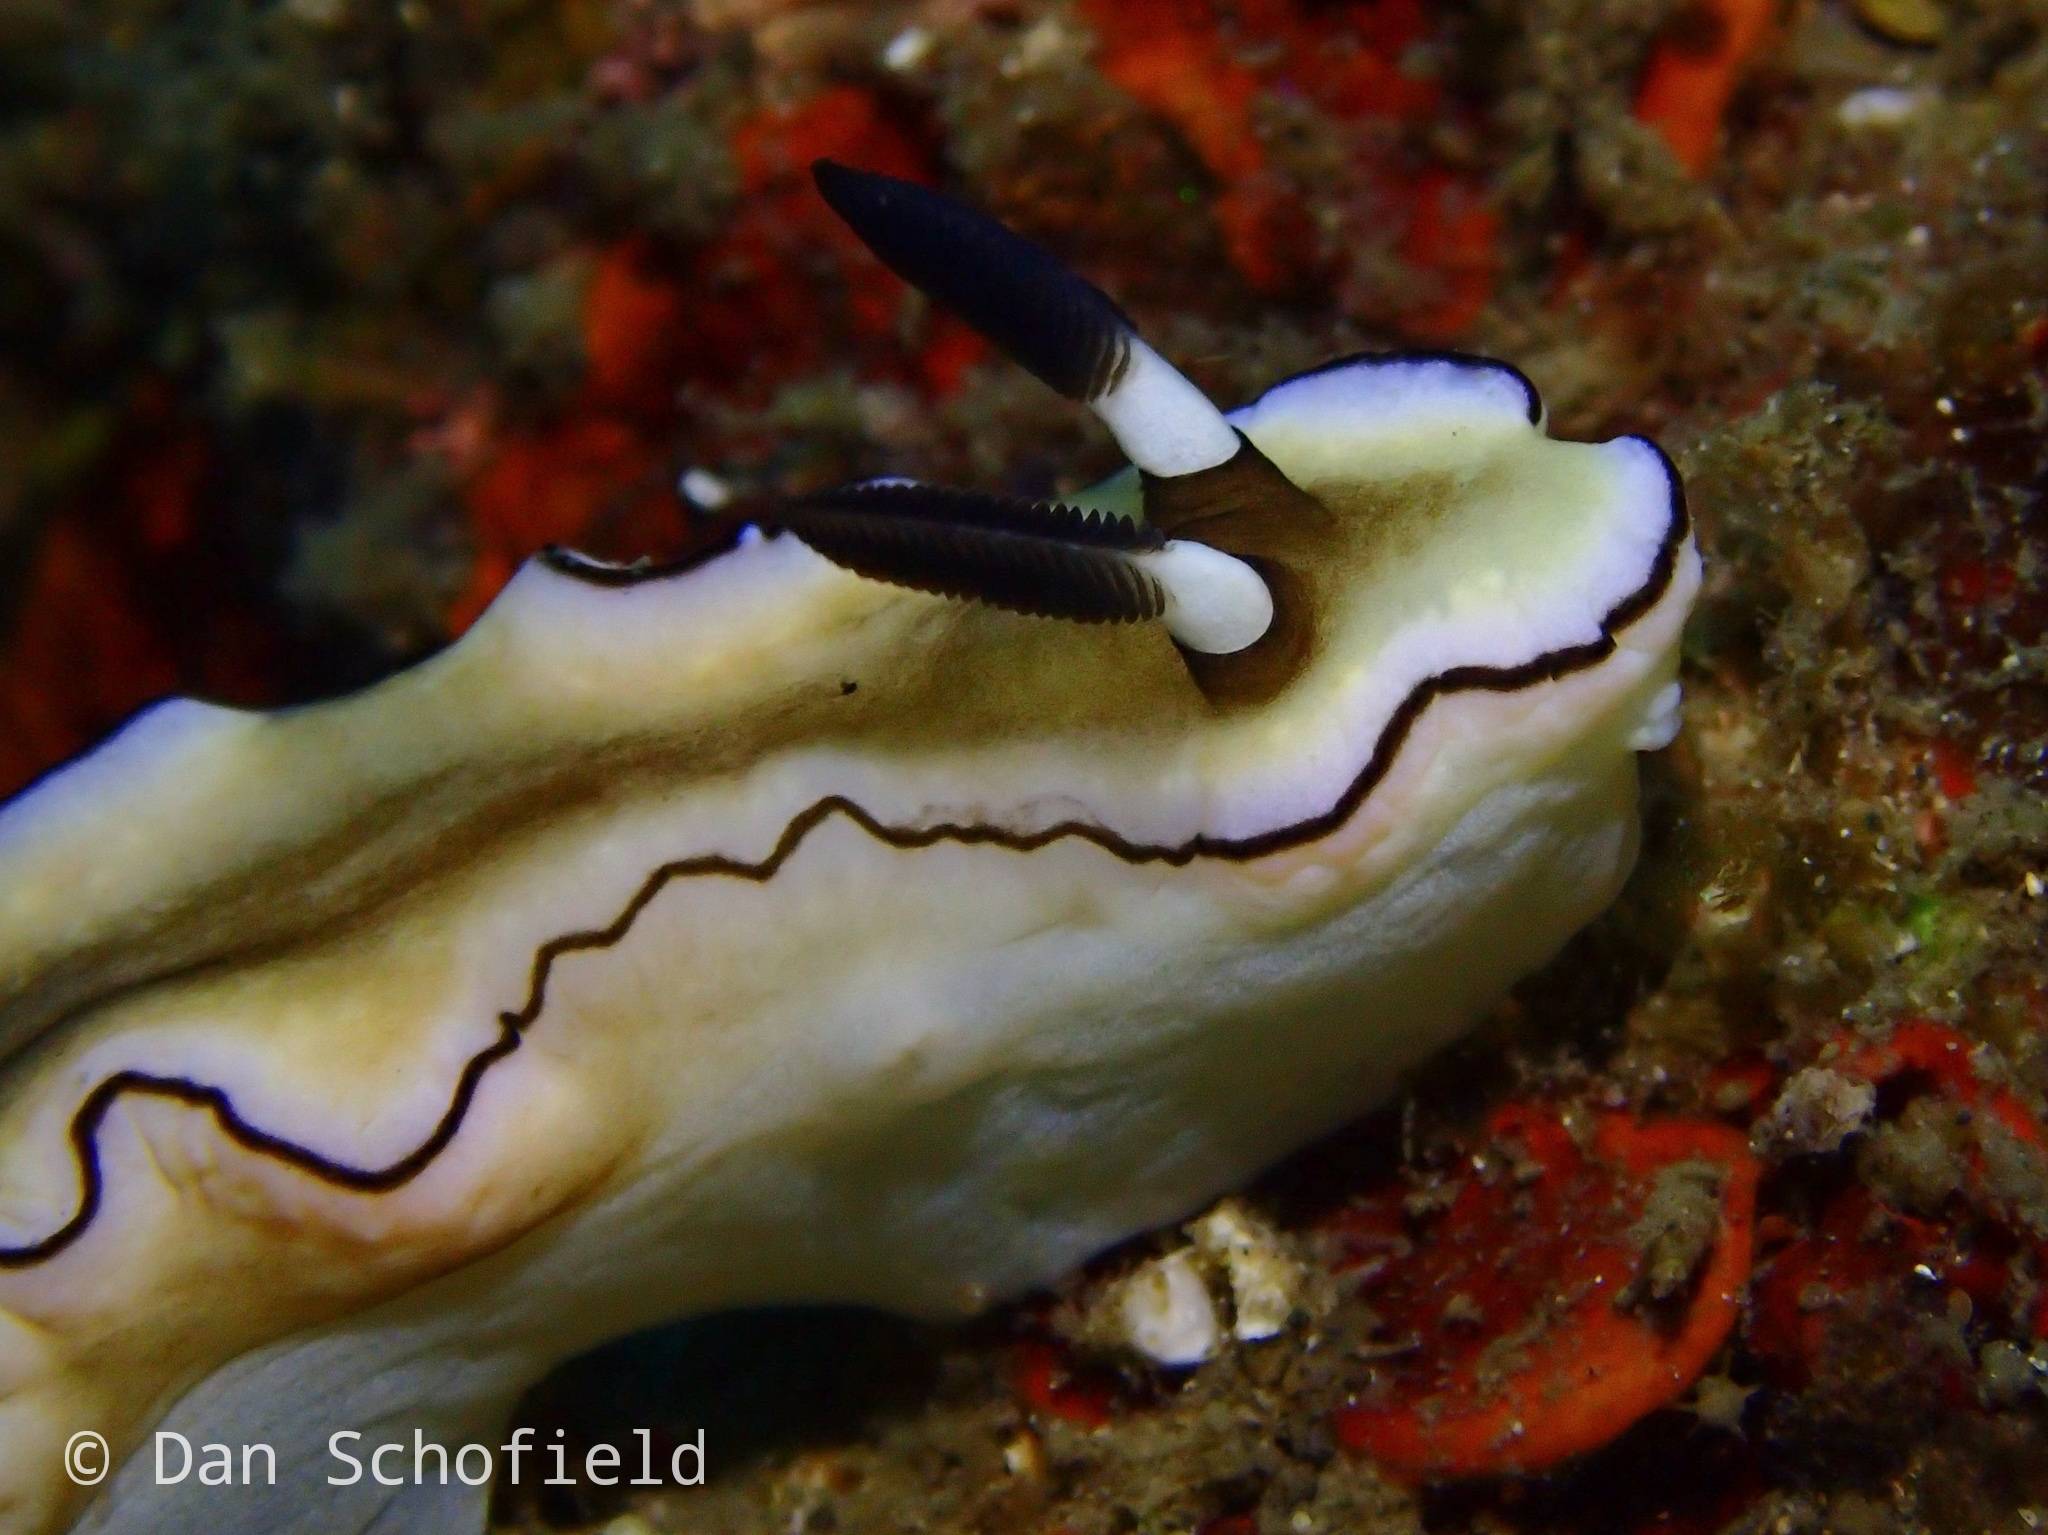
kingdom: Animalia
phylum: Mollusca
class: Gastropoda
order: Nudibranchia
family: Chromodorididae
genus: Doriprismatica
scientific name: Doriprismatica atromarginata
